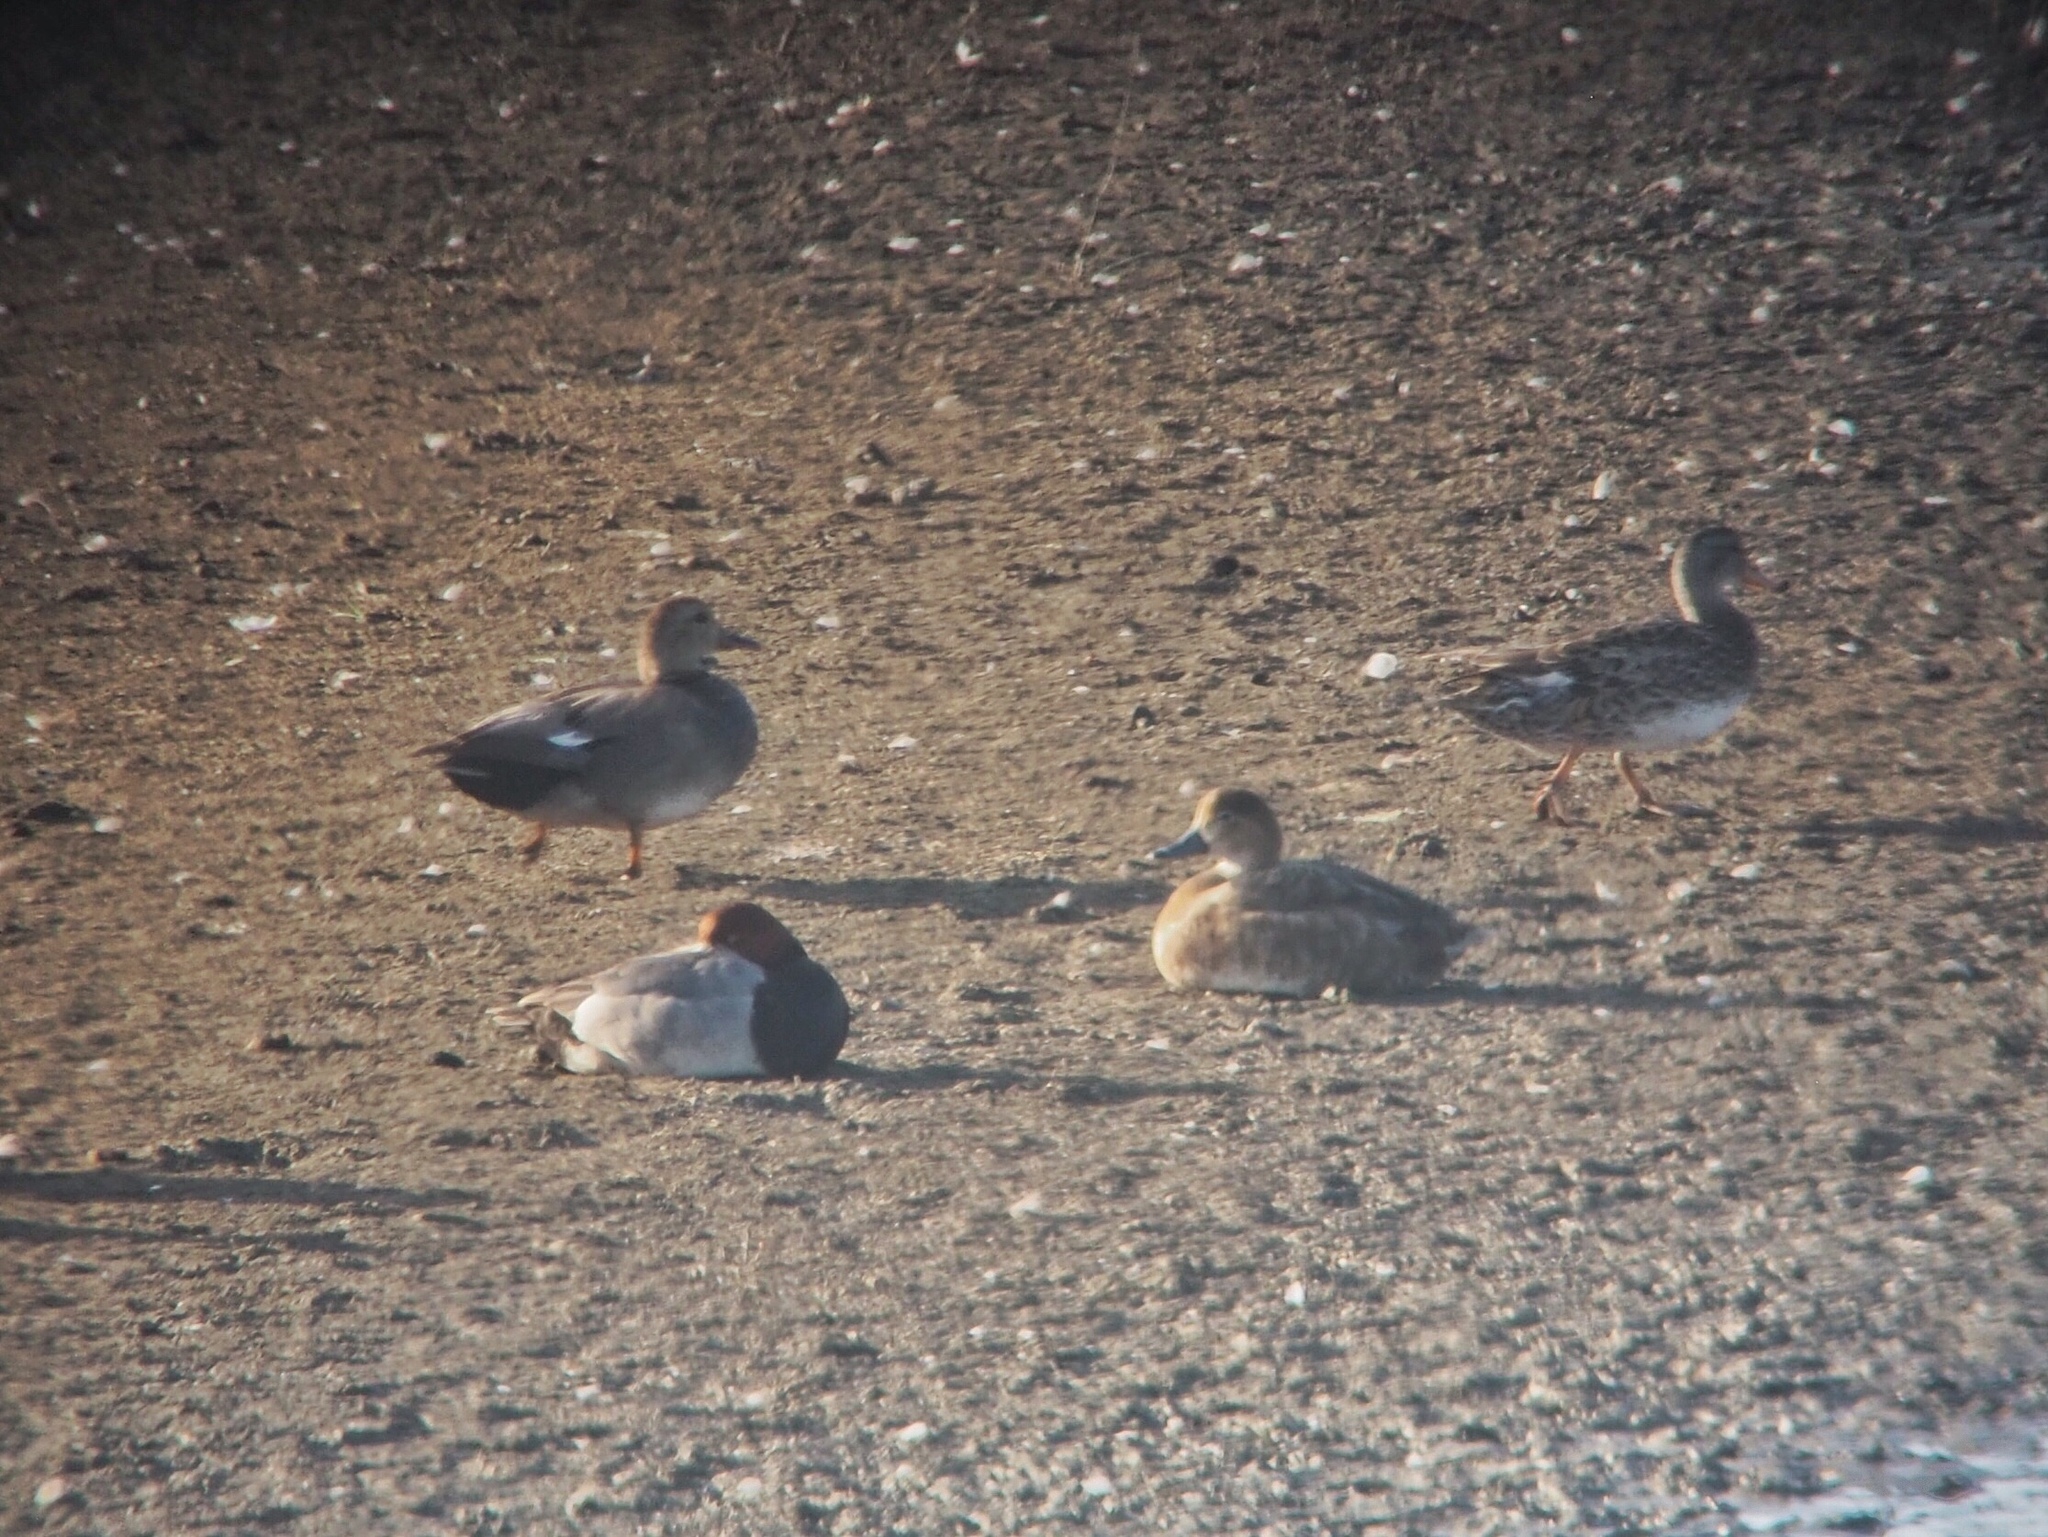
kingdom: Animalia
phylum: Chordata
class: Aves
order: Anseriformes
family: Anatidae
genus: Aythya
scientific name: Aythya americana
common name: Redhead
